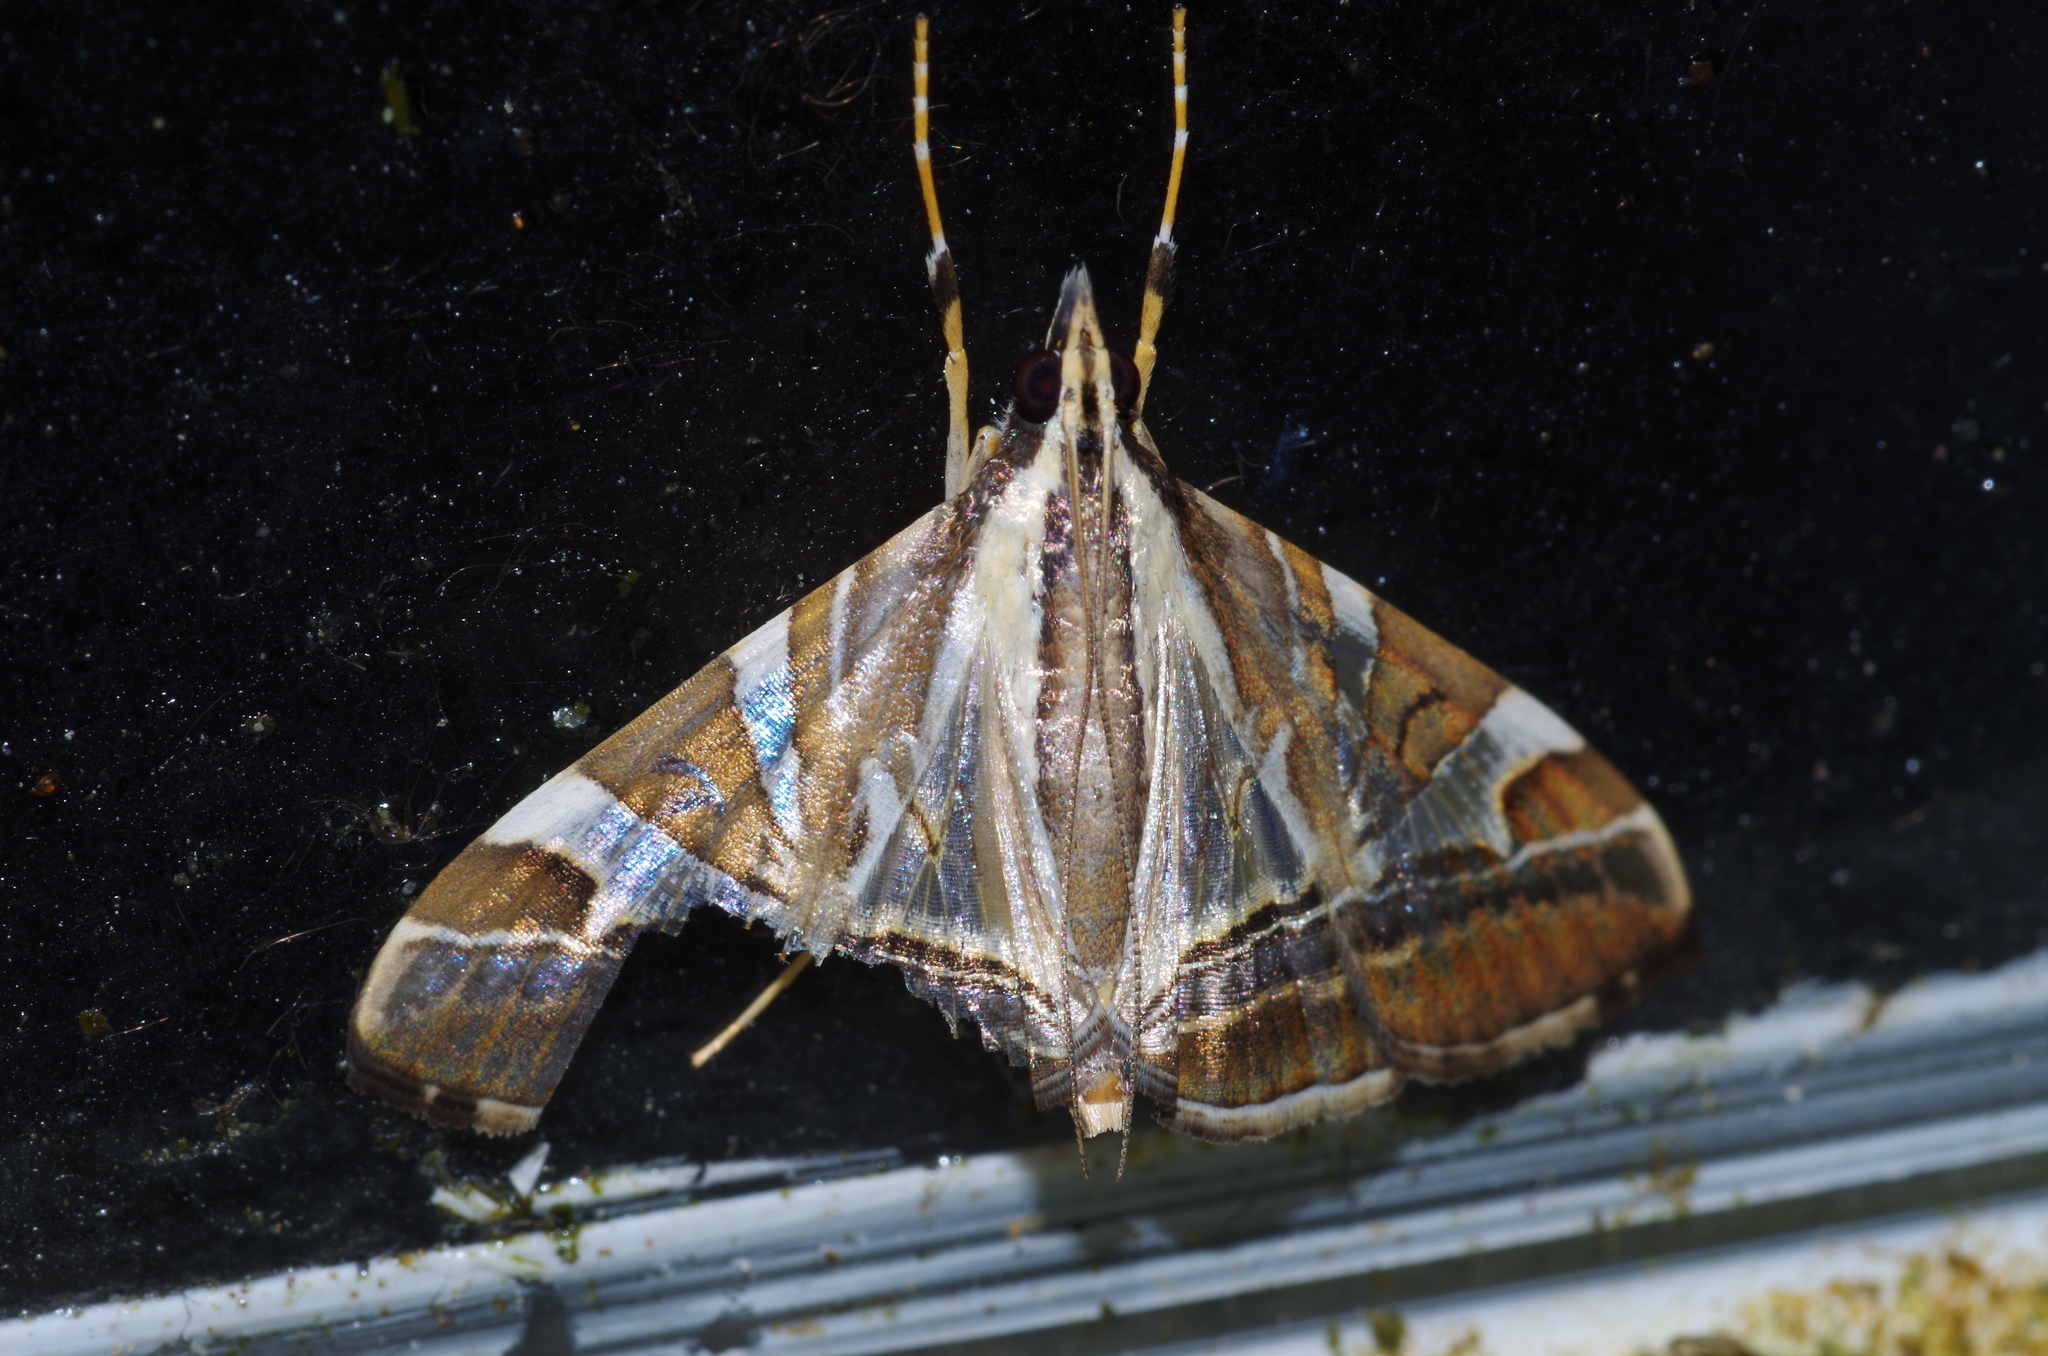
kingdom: Animalia
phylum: Arthropoda
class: Insecta
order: Lepidoptera
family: Crambidae
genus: Agrioglypta
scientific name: Agrioglypta itysalis
